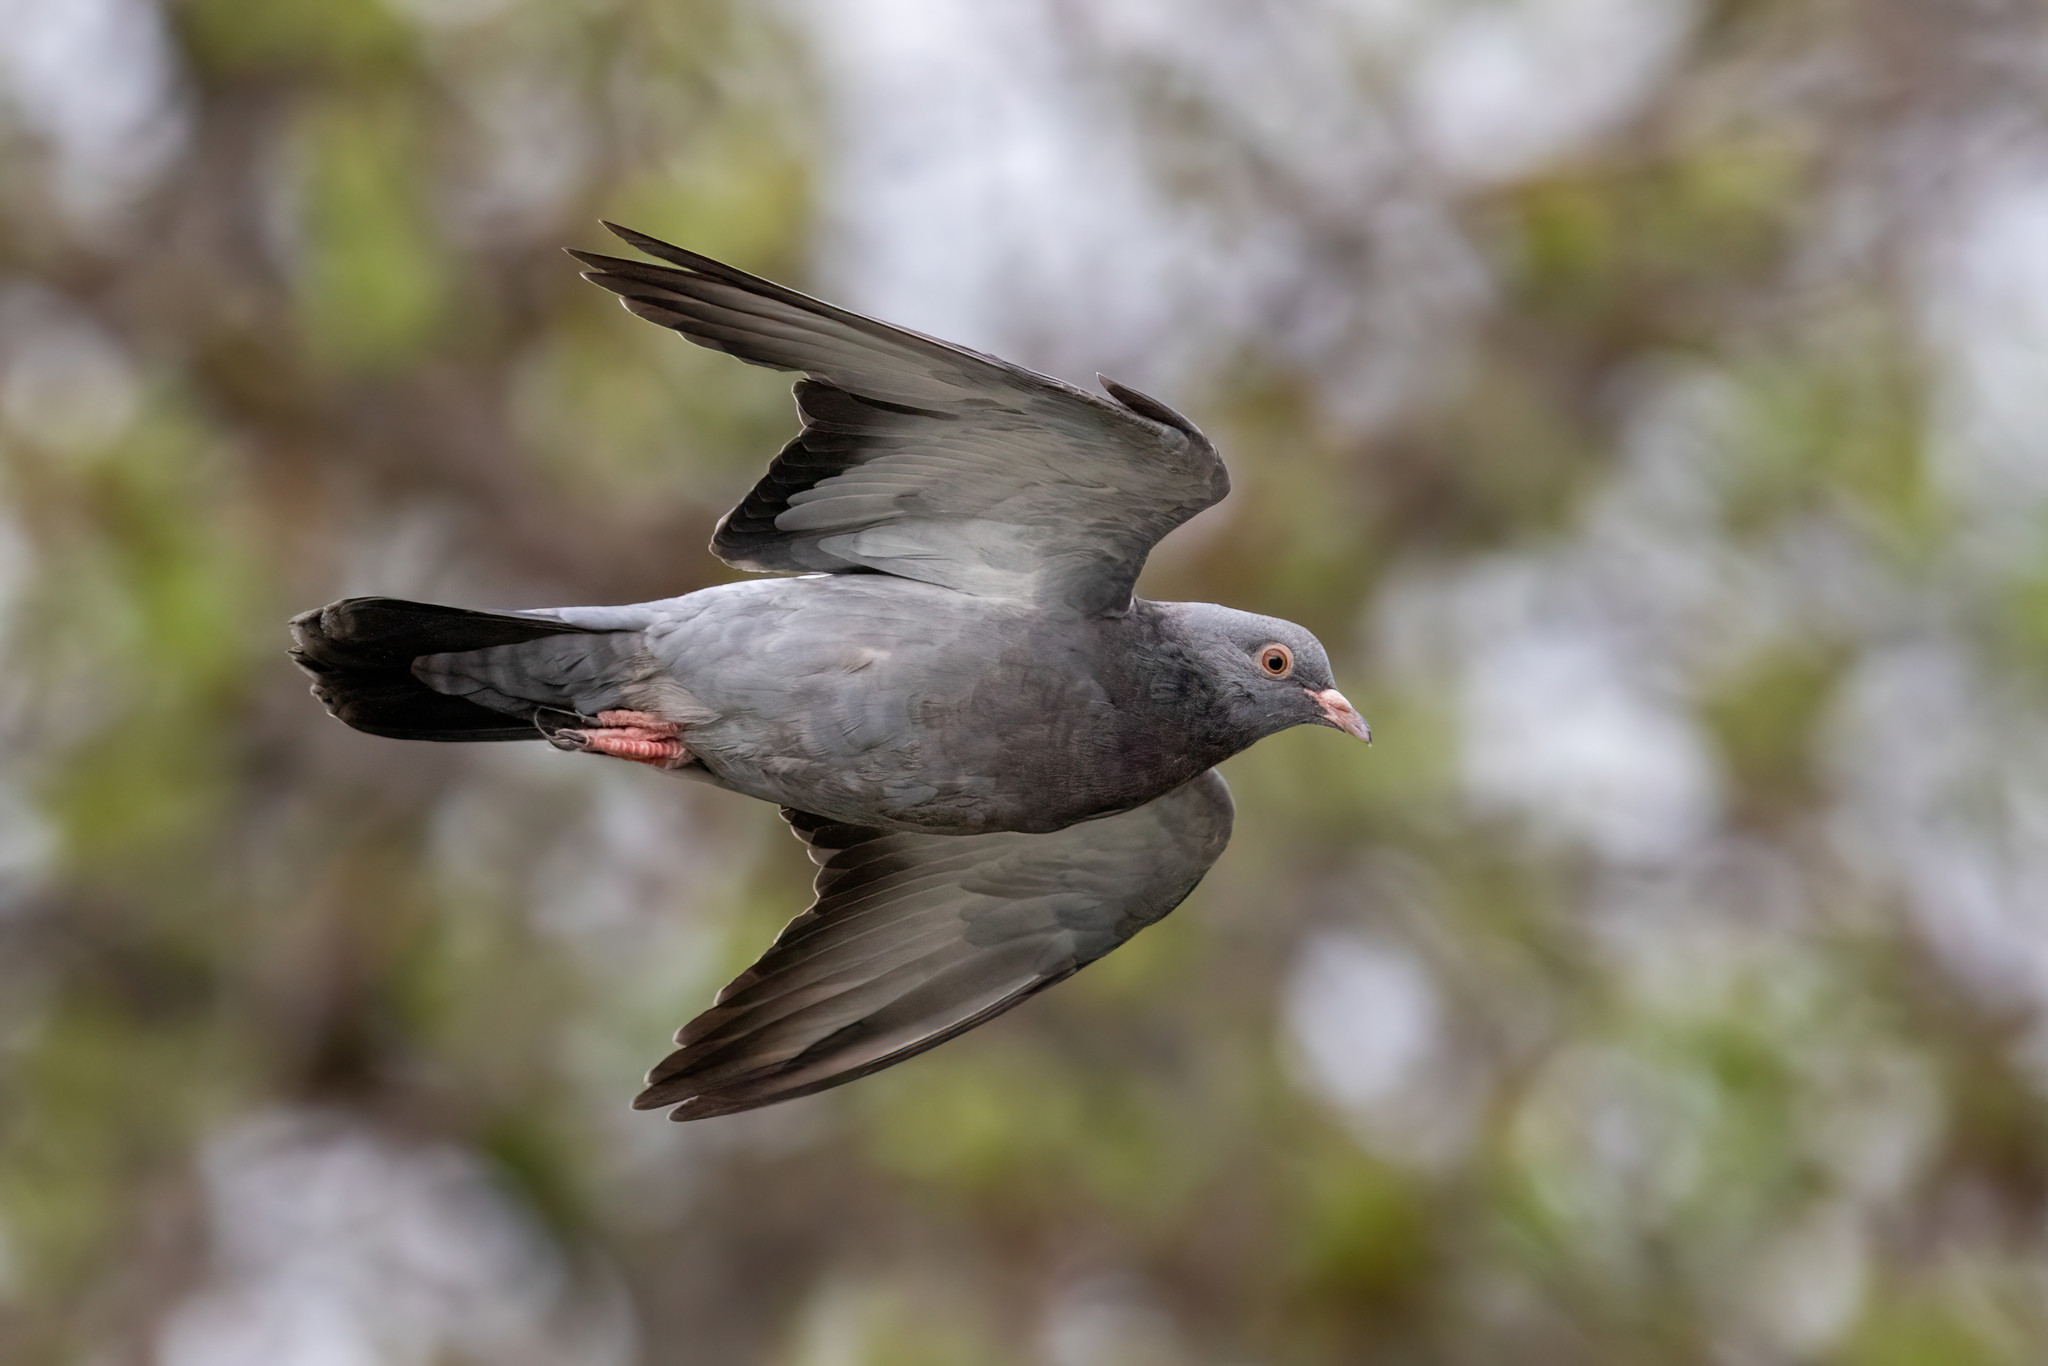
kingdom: Animalia
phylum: Chordata
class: Aves
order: Columbiformes
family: Columbidae
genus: Columba
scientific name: Columba livia
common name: Rock pigeon
